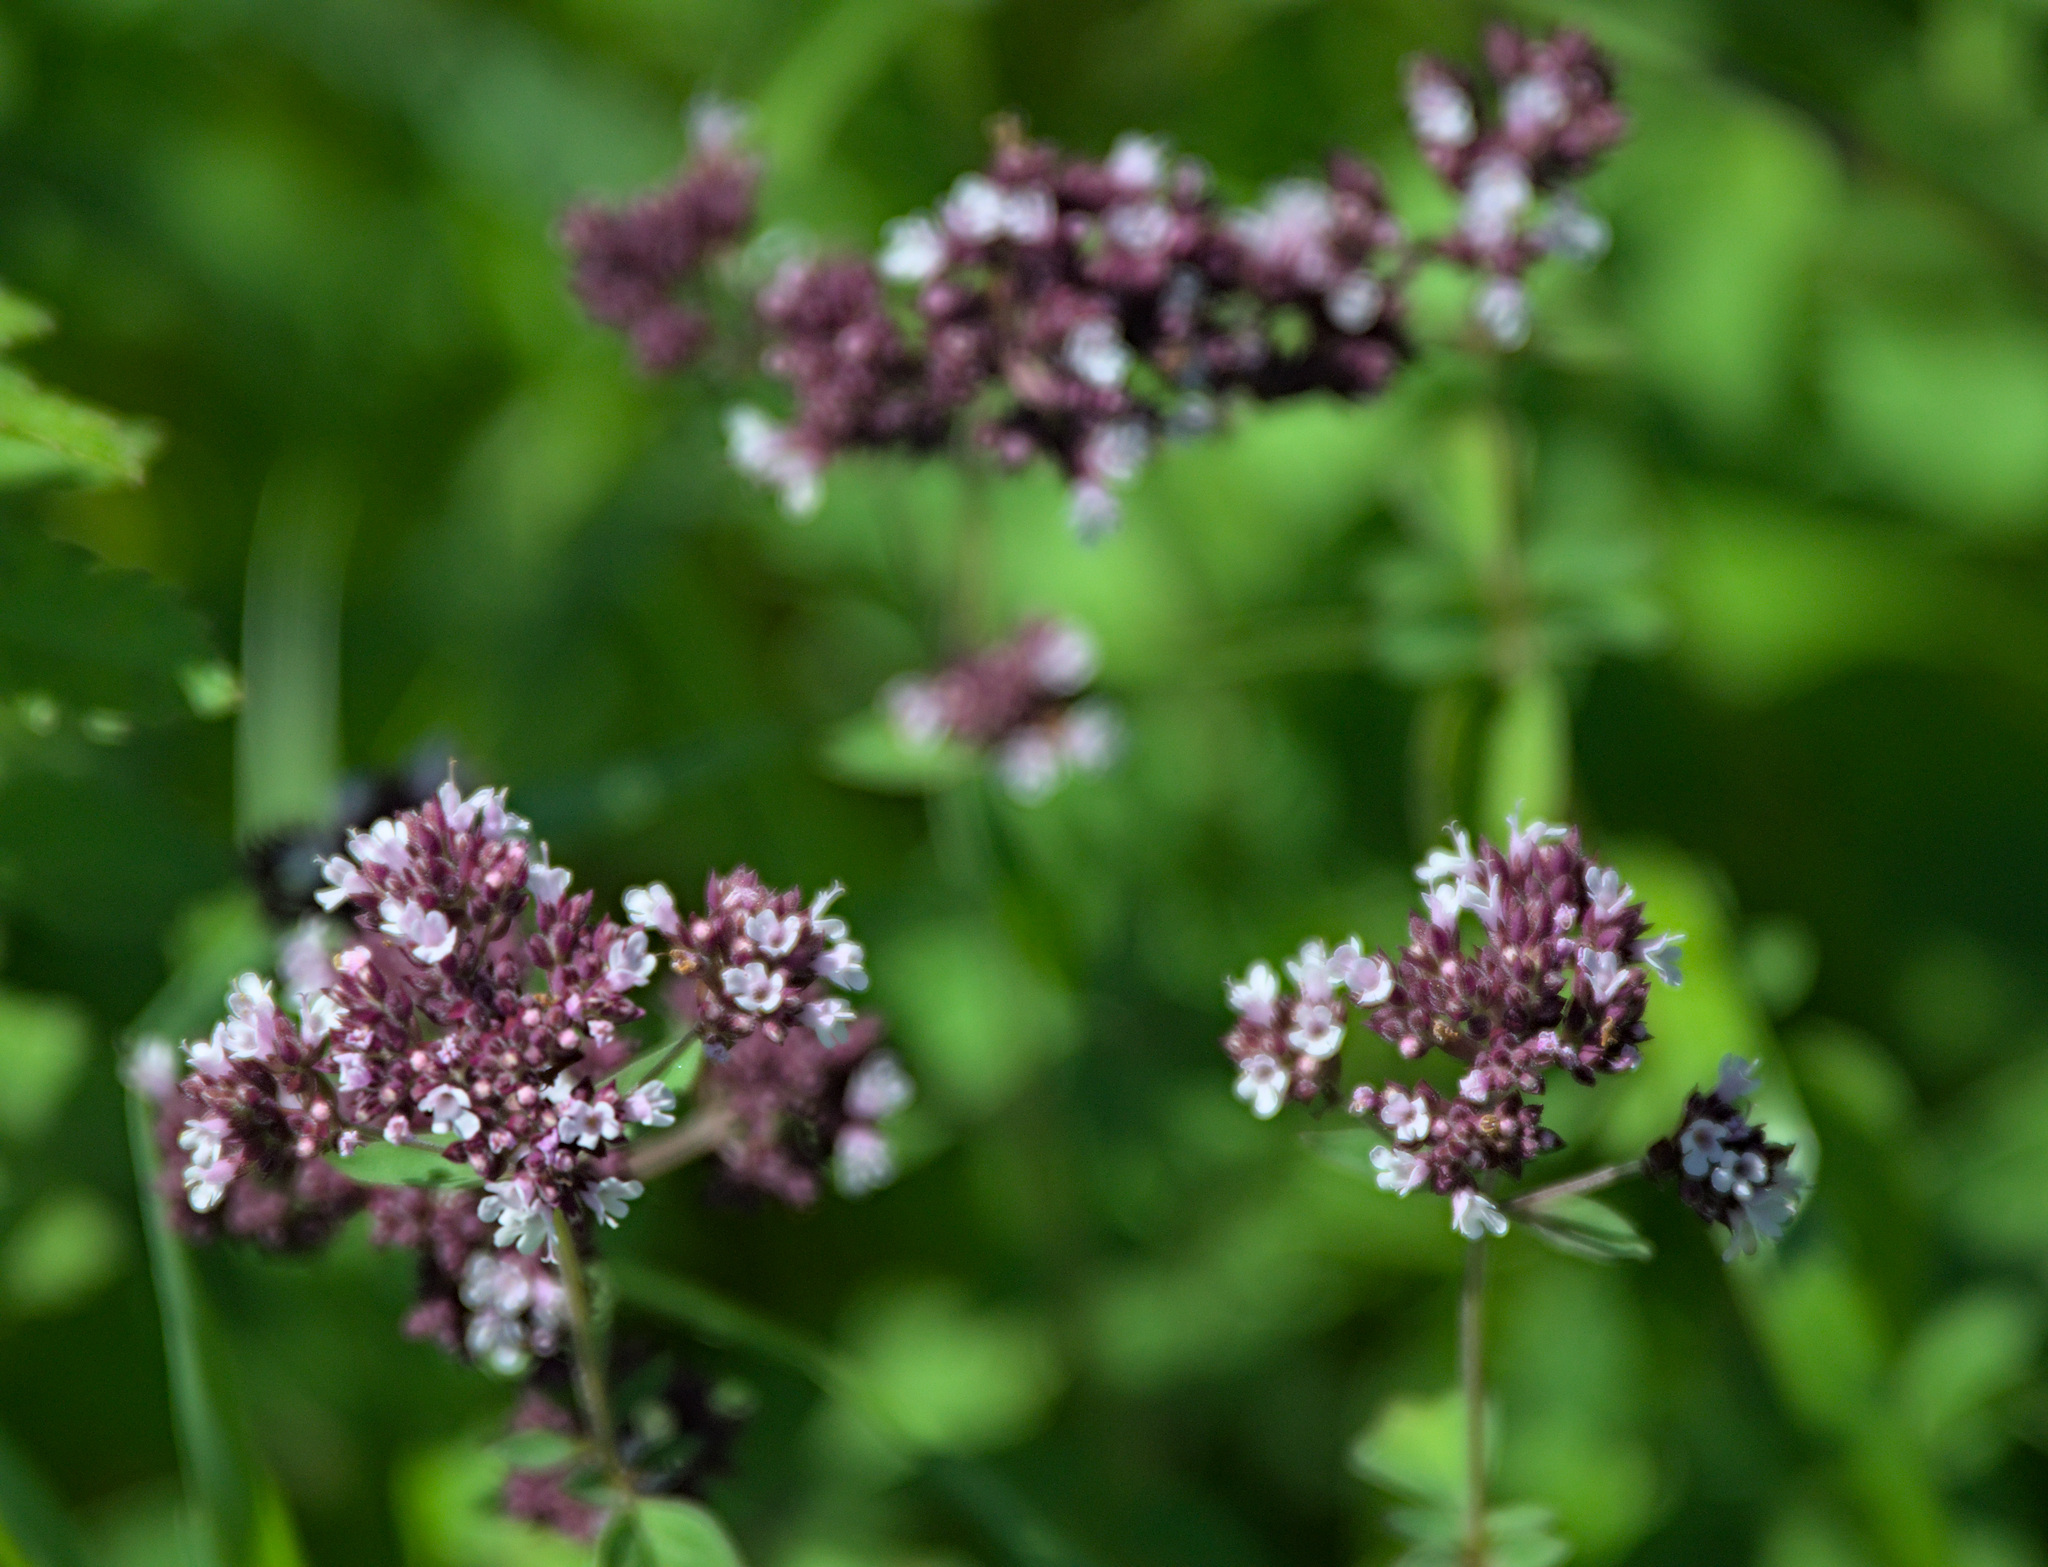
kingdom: Plantae
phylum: Tracheophyta
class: Magnoliopsida
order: Lamiales
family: Lamiaceae
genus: Origanum
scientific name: Origanum vulgare
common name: Wild marjoram
